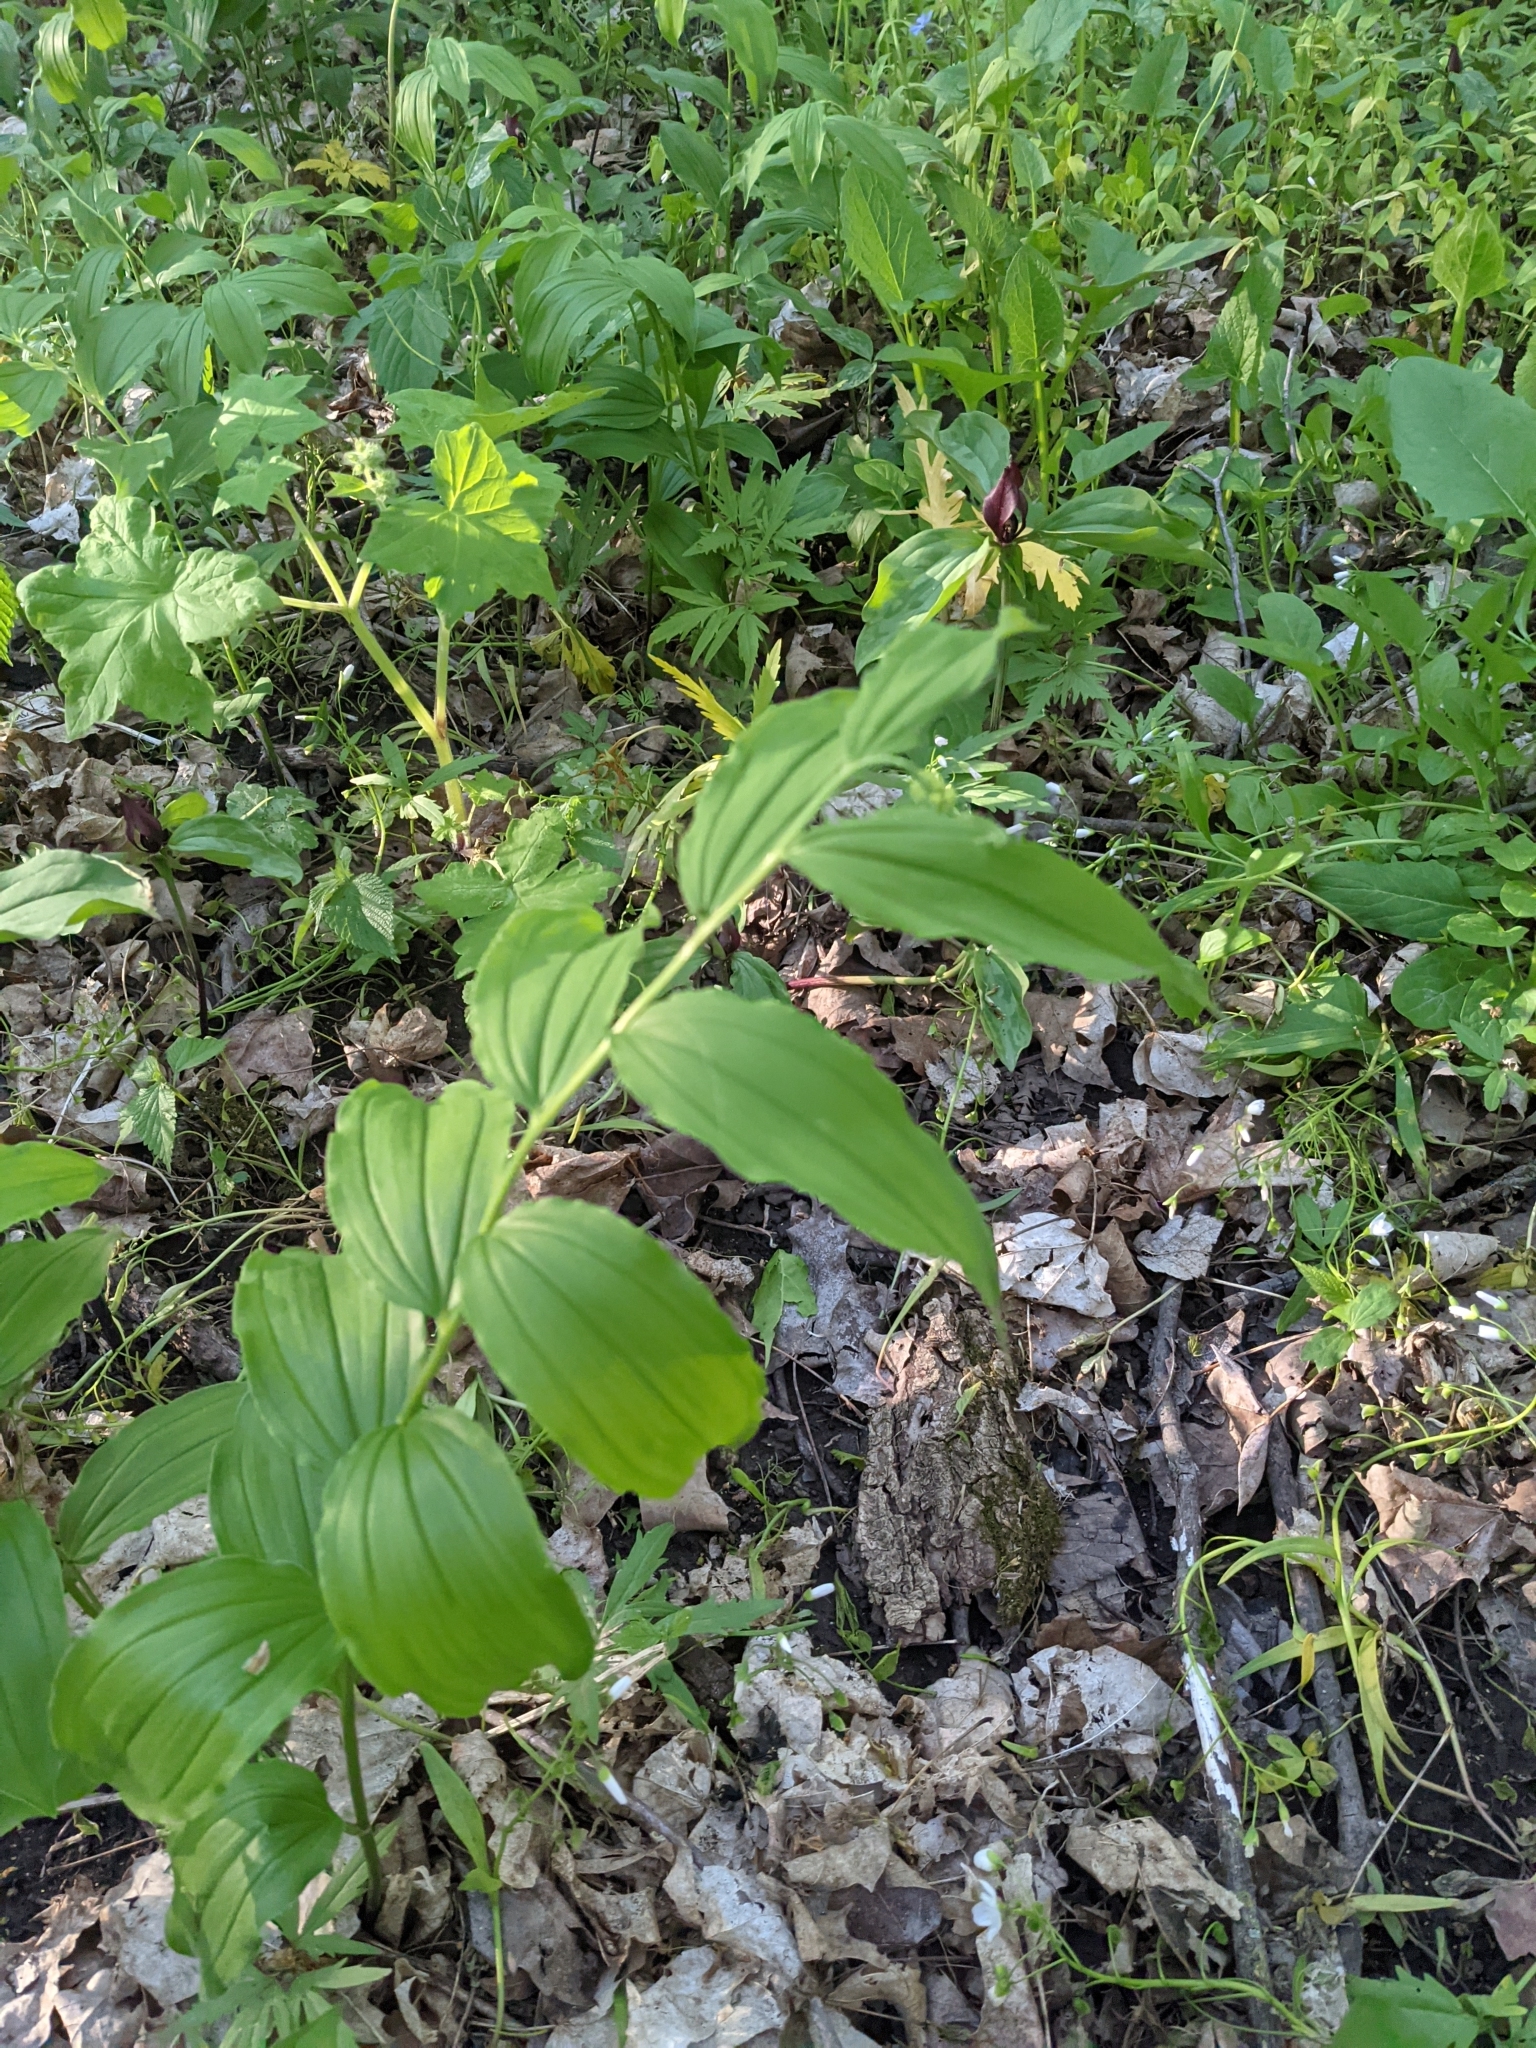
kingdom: Plantae
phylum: Tracheophyta
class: Liliopsida
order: Asparagales
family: Asparagaceae
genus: Maianthemum
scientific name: Maianthemum racemosum
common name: False spikenard
